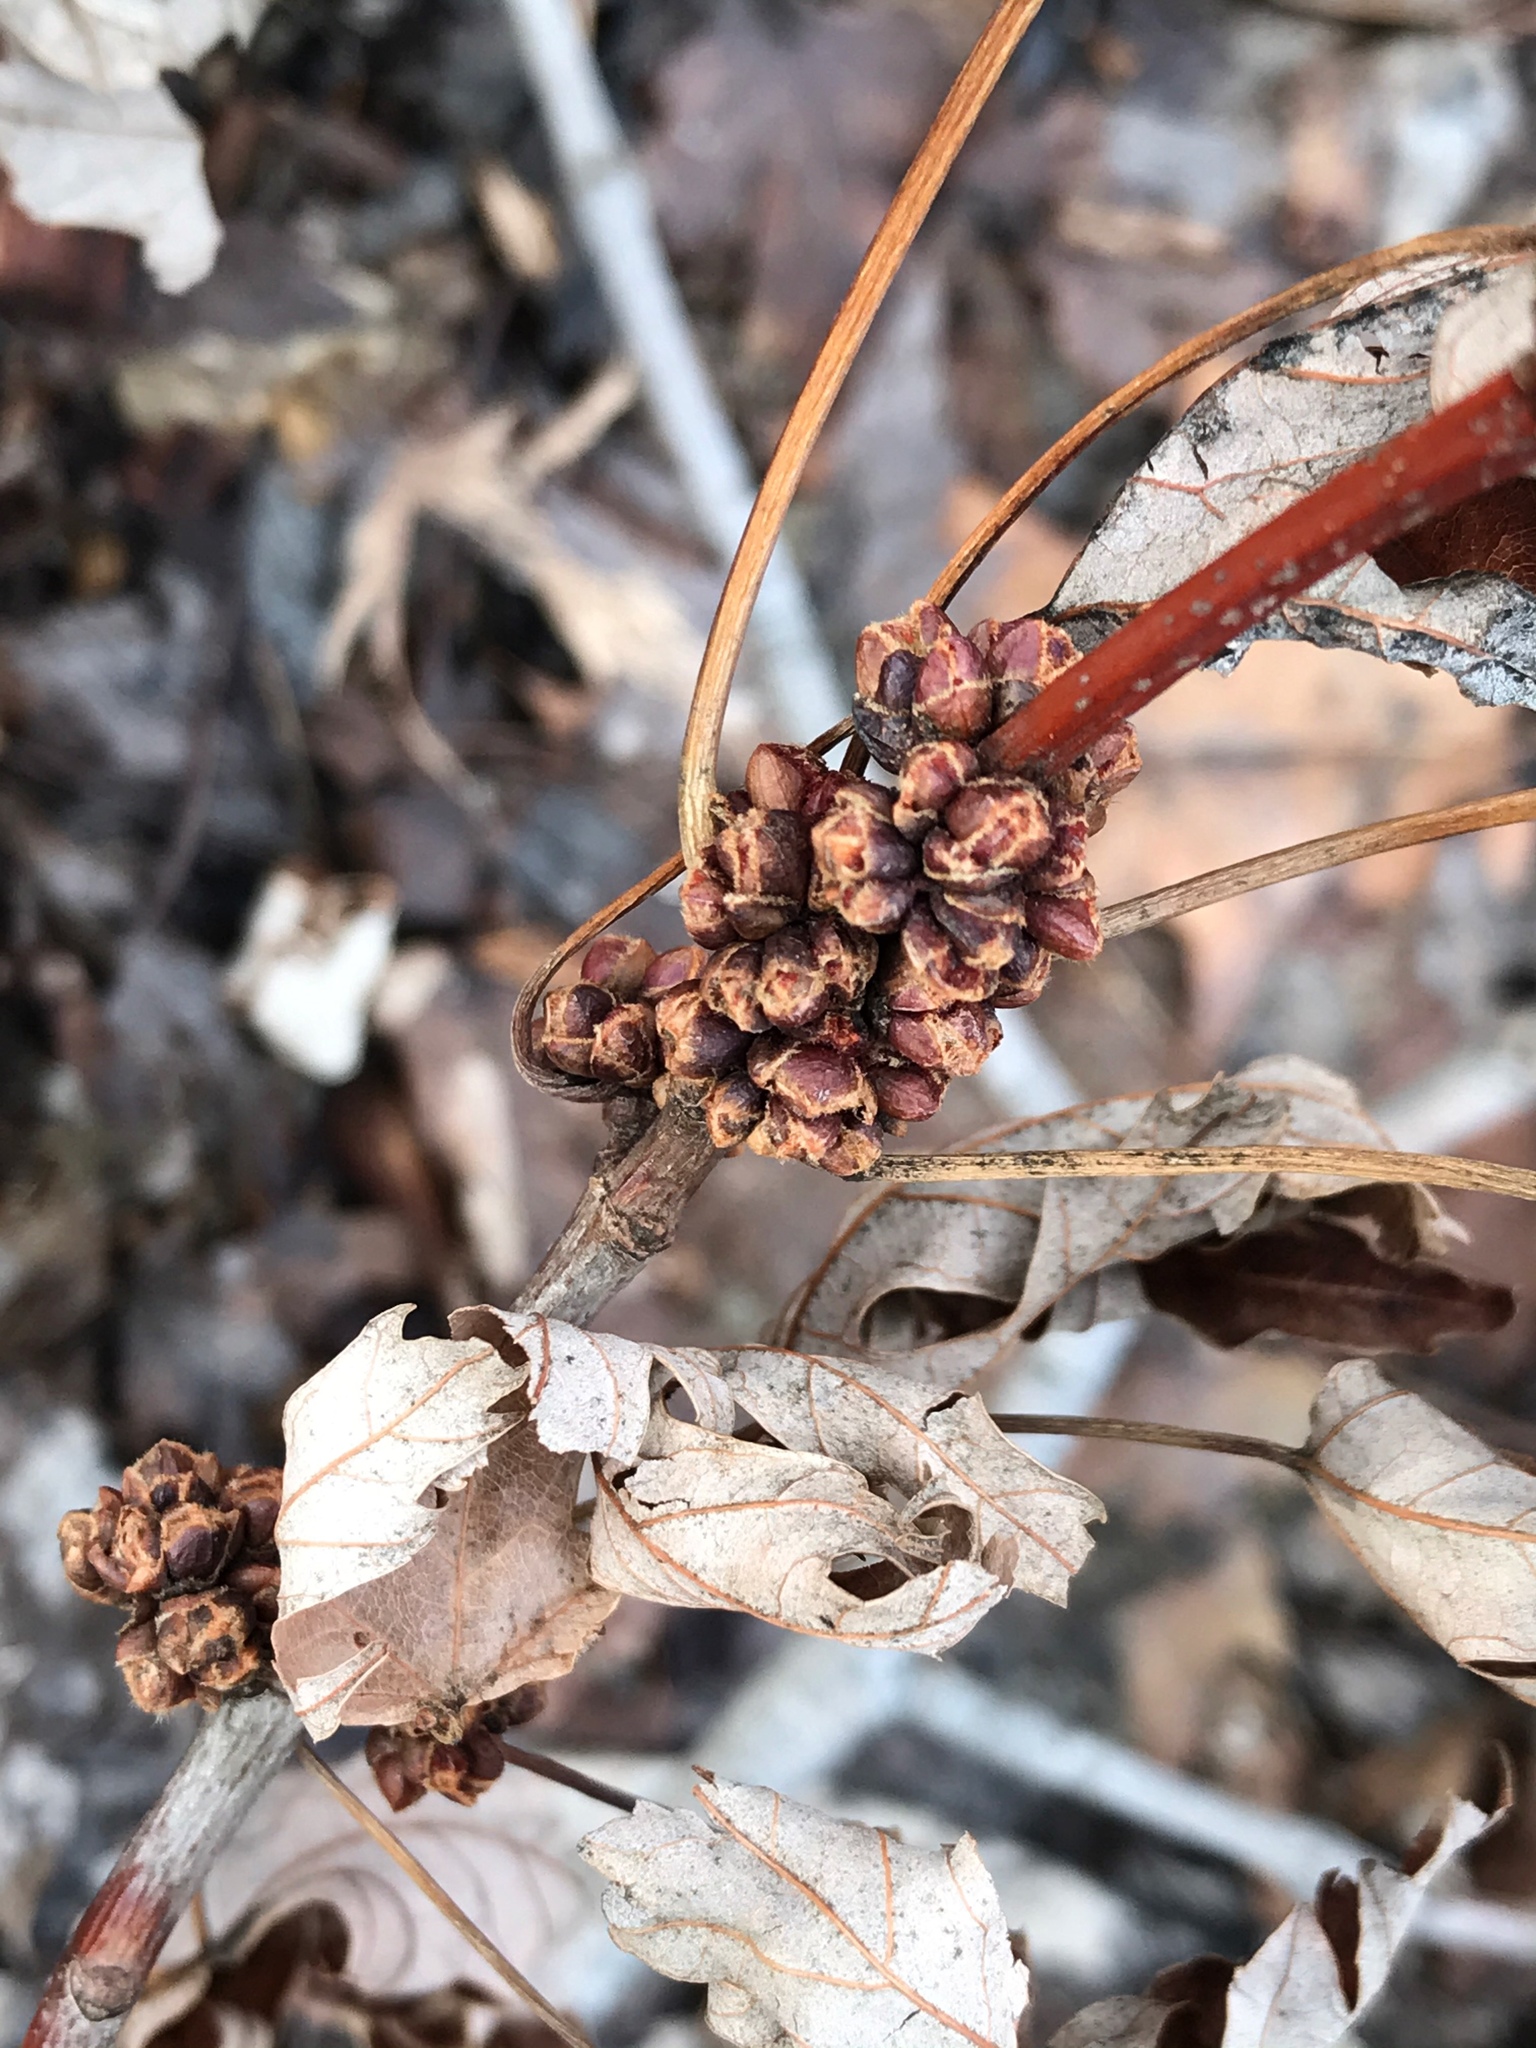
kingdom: Plantae
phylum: Tracheophyta
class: Magnoliopsida
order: Sapindales
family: Sapindaceae
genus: Acer
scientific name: Acer saccharinum
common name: Silver maple
